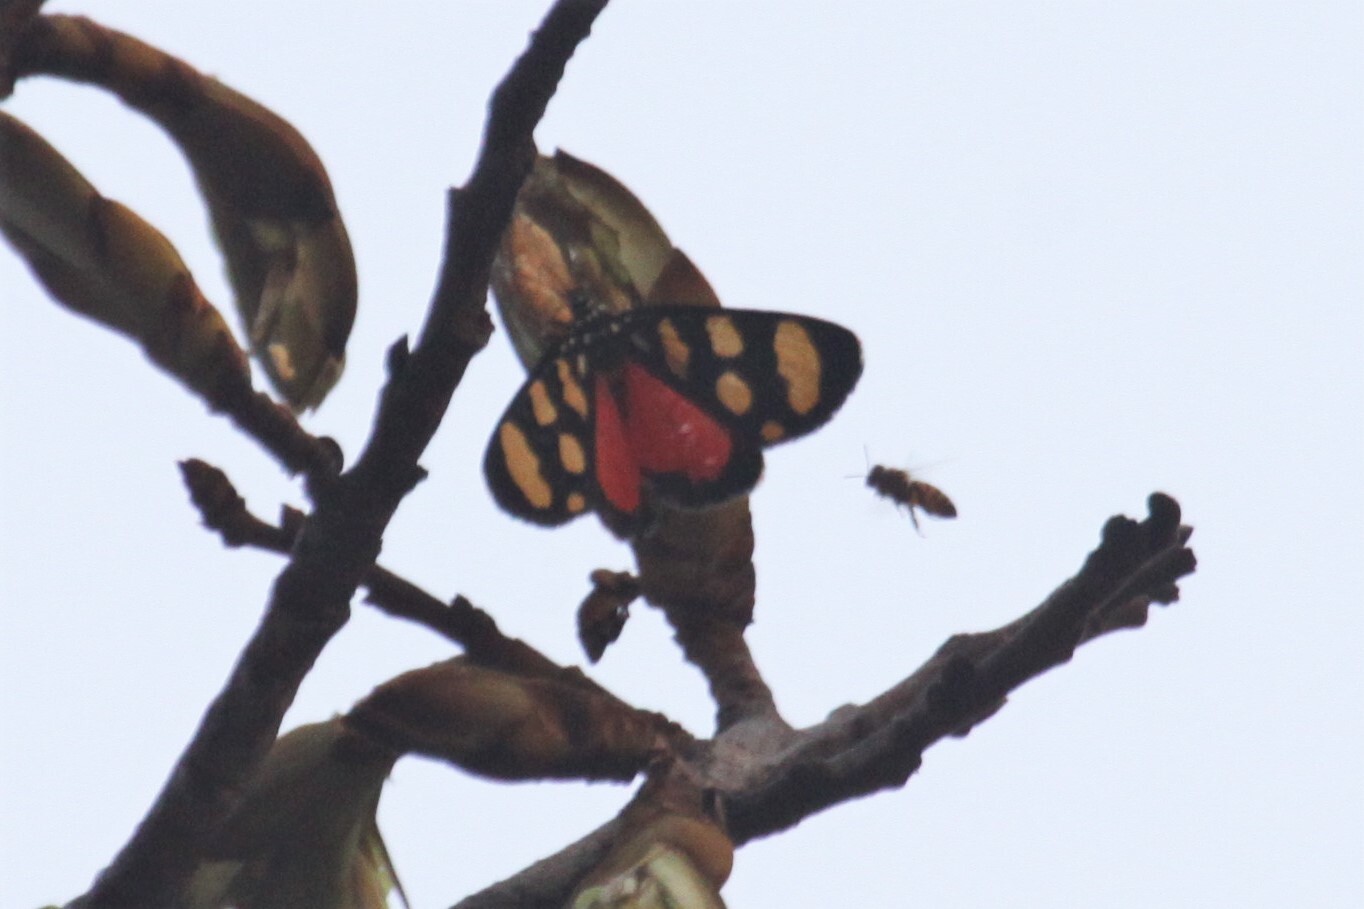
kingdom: Animalia
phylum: Arthropoda
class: Insecta
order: Lepidoptera
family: Noctuidae
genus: Heraclia
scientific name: Heraclia superba
